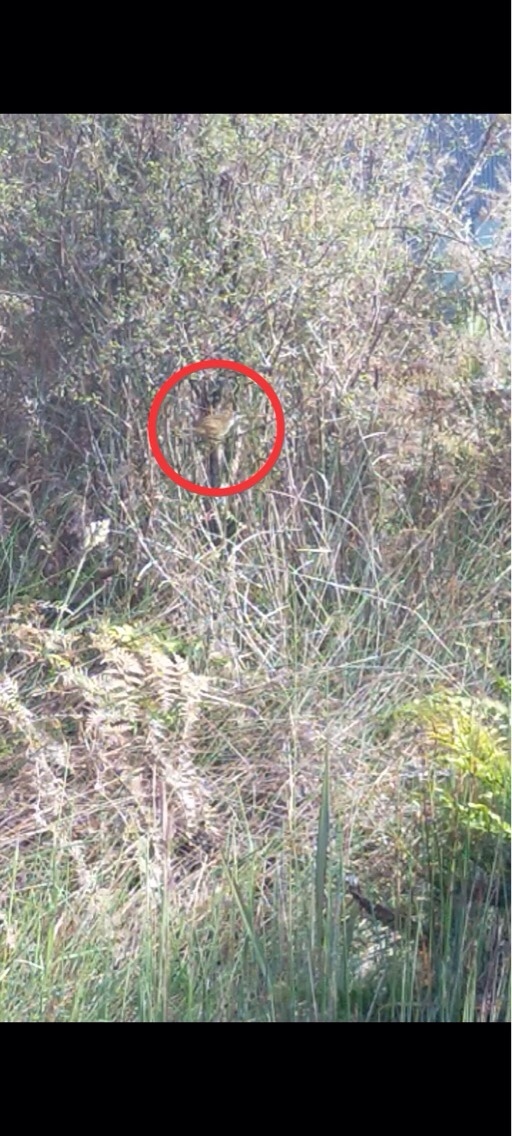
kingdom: Animalia
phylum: Chordata
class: Aves
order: Passeriformes
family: Locustellidae
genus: Poodytes
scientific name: Poodytes punctatus
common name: New zealand fernbird
